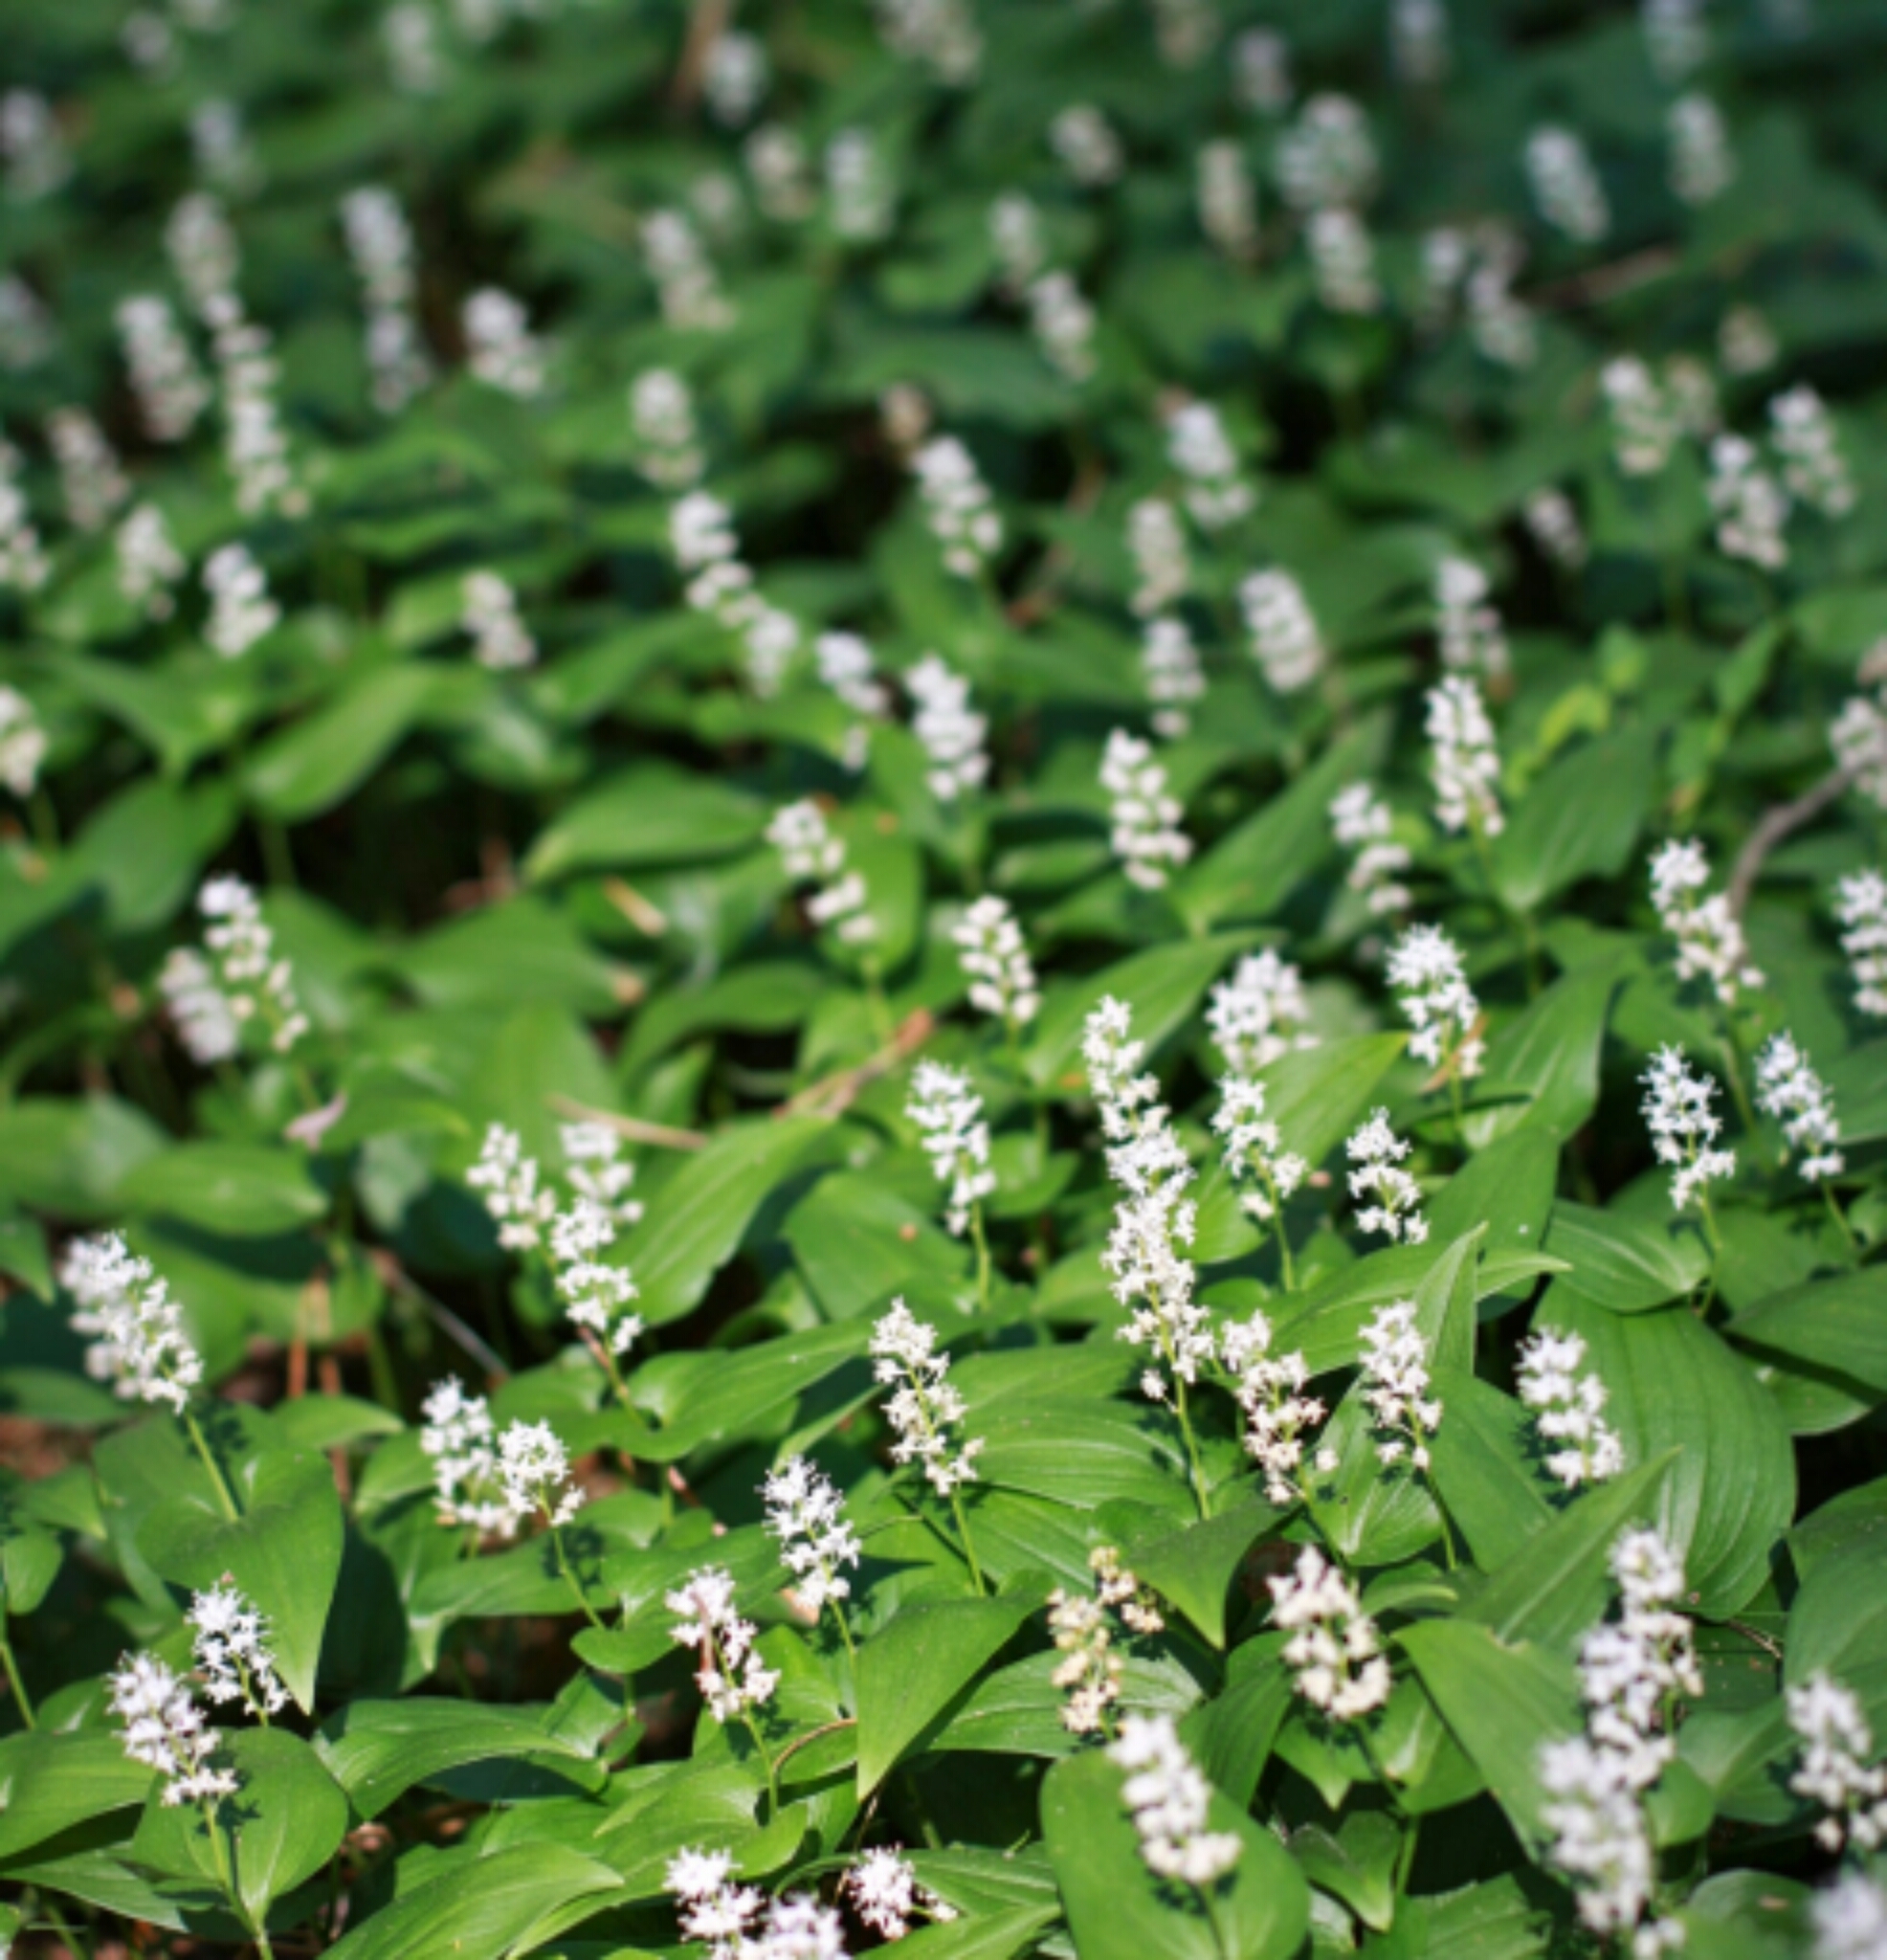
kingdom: Plantae
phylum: Tracheophyta
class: Liliopsida
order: Asparagales
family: Asparagaceae
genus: Maianthemum
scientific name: Maianthemum bifolium
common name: May lily
